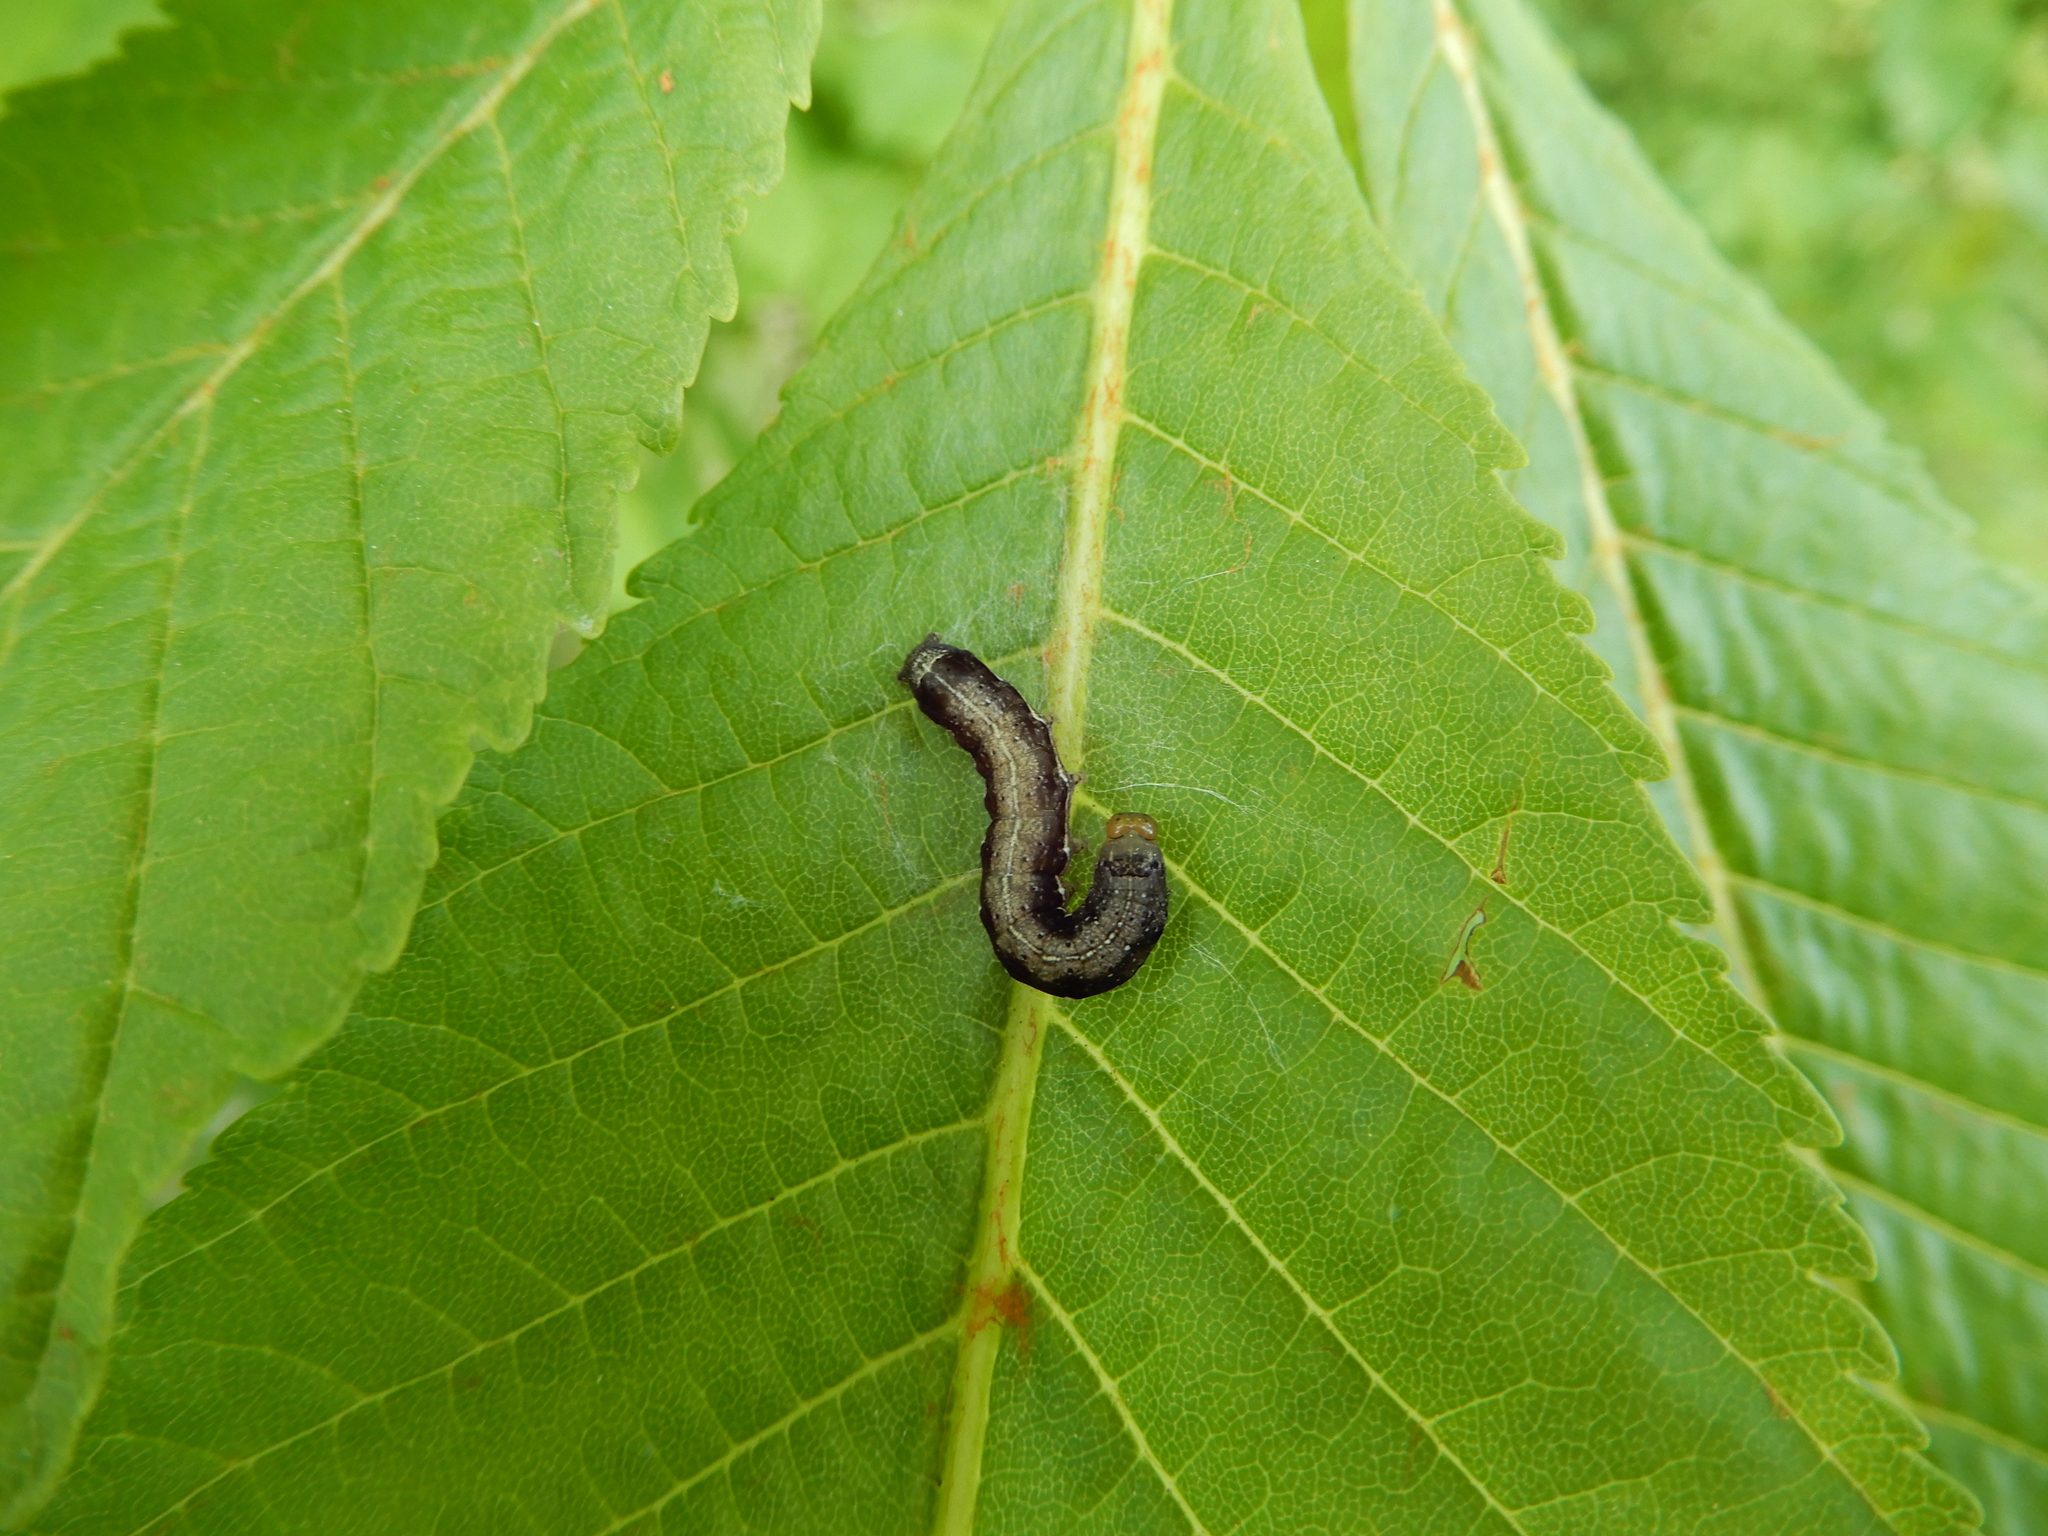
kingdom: Animalia
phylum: Arthropoda
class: Insecta
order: Lepidoptera
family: Noctuidae
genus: Anorthoa
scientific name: Anorthoa munda
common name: Twin-spotted quaker
